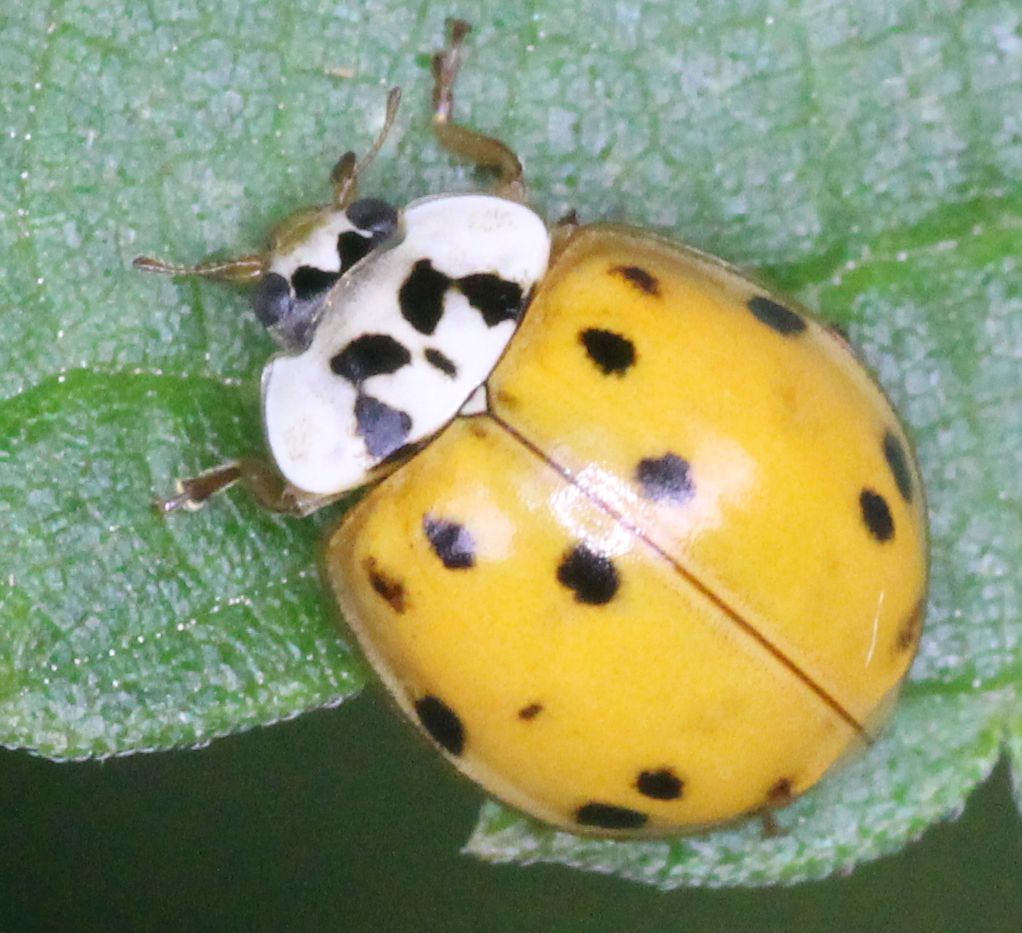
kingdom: Animalia
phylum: Arthropoda
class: Insecta
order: Coleoptera
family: Coccinellidae
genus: Harmonia
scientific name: Harmonia axyridis
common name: Harlequin ladybird
